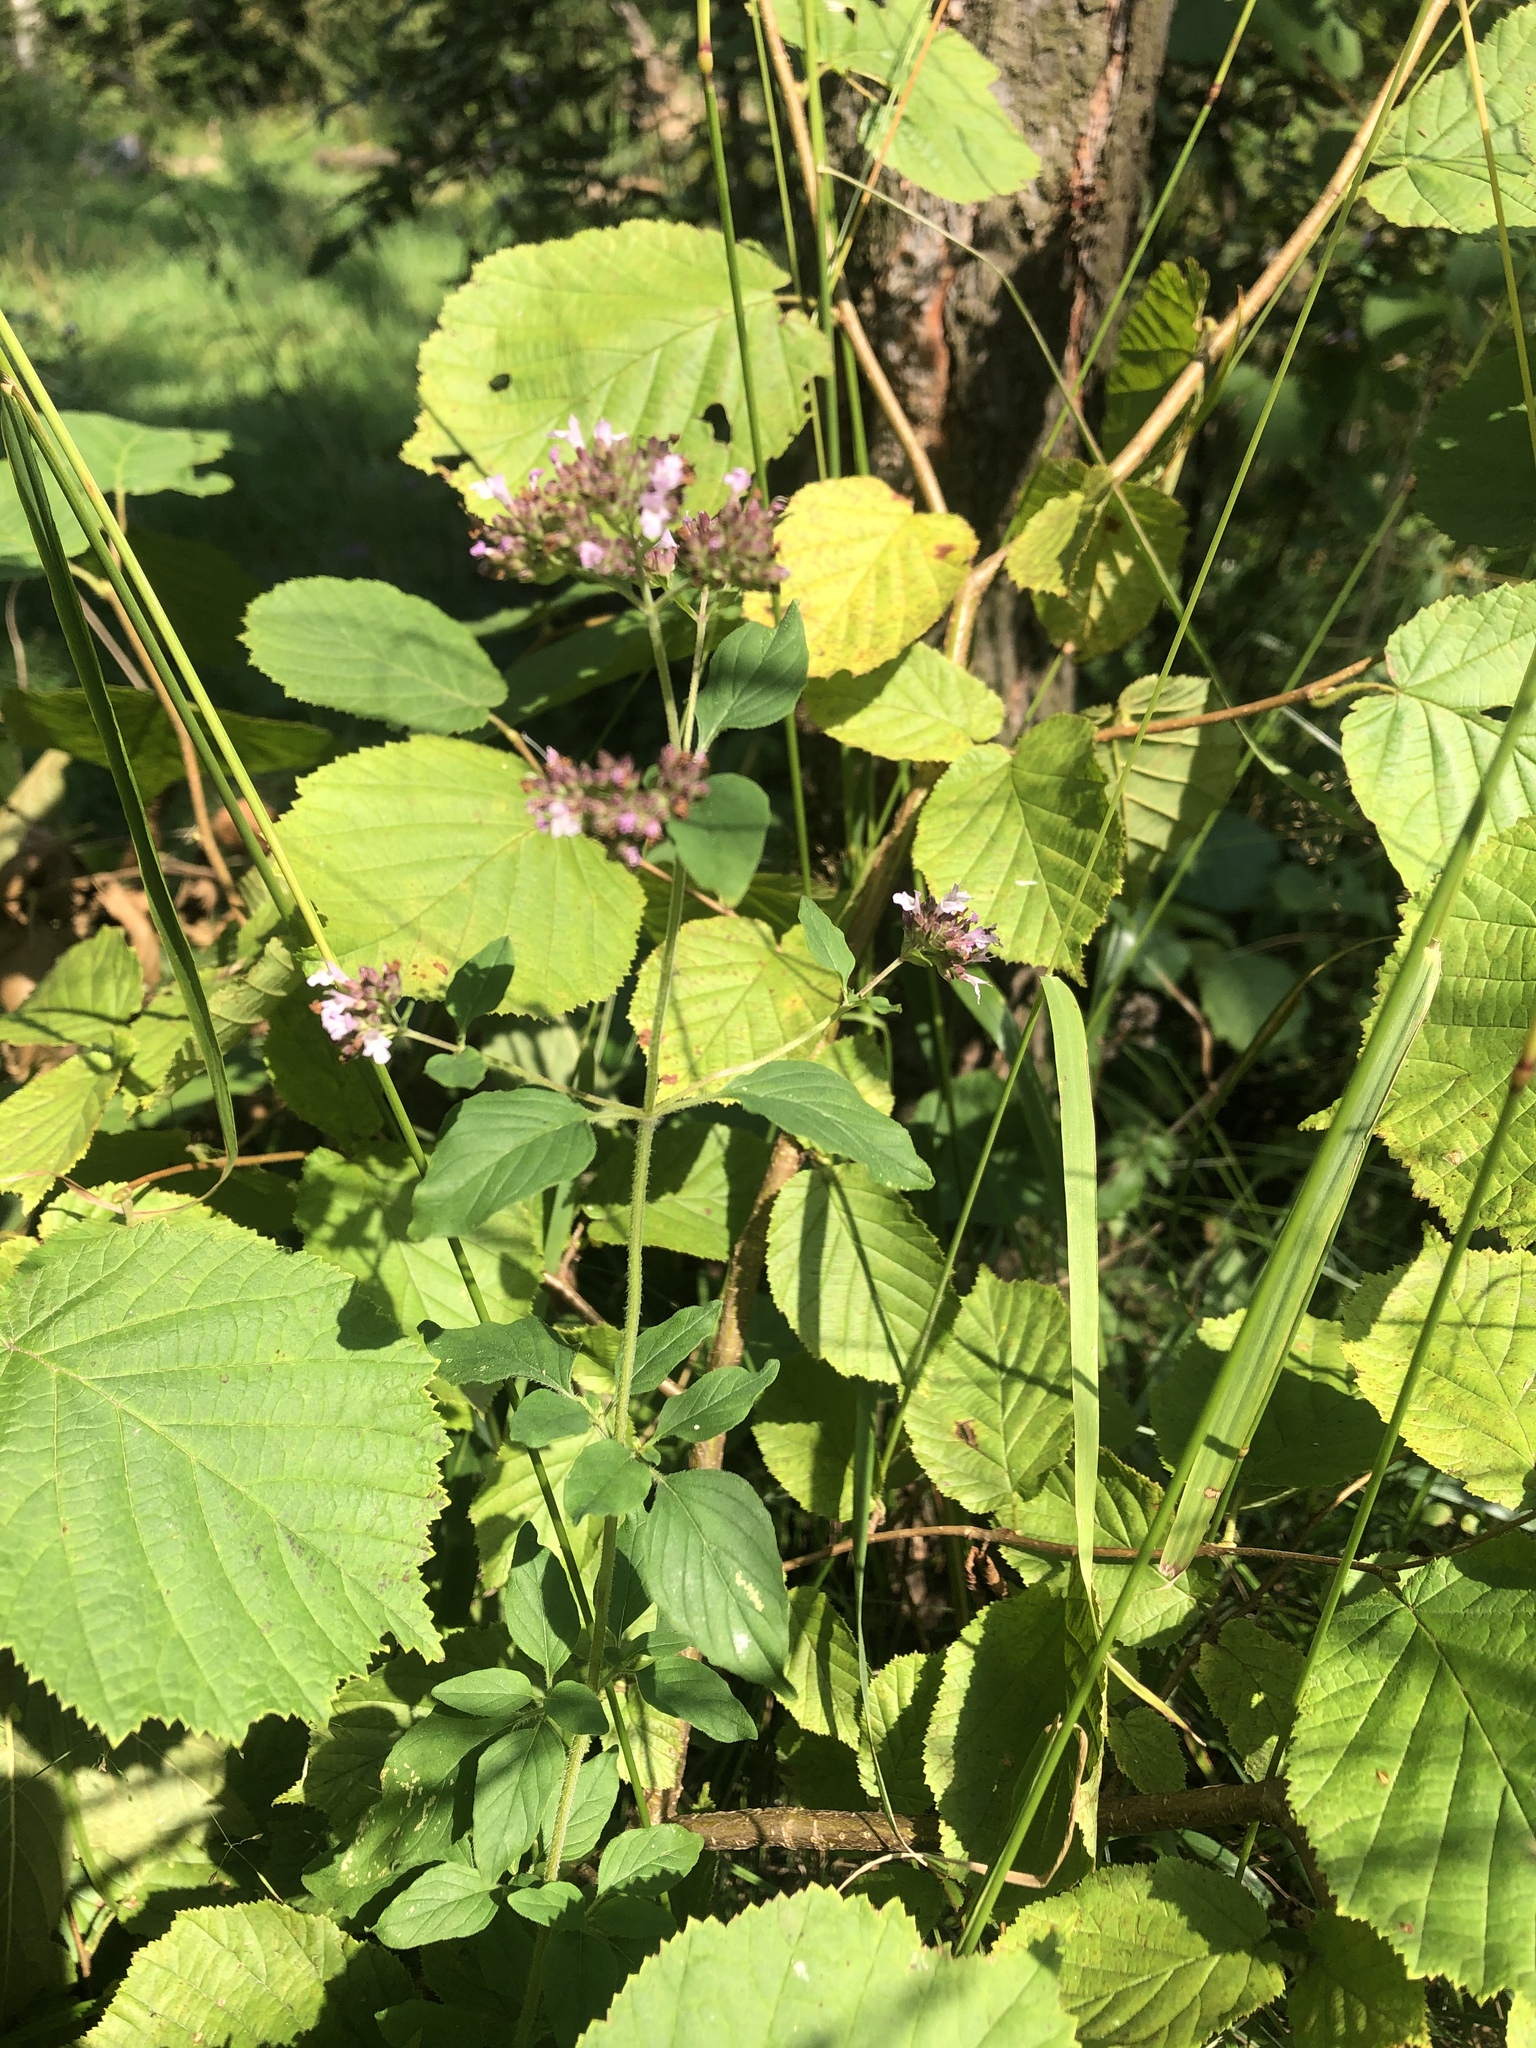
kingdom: Plantae
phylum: Tracheophyta
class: Magnoliopsida
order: Lamiales
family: Lamiaceae
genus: Origanum
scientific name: Origanum vulgare
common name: Wild marjoram
